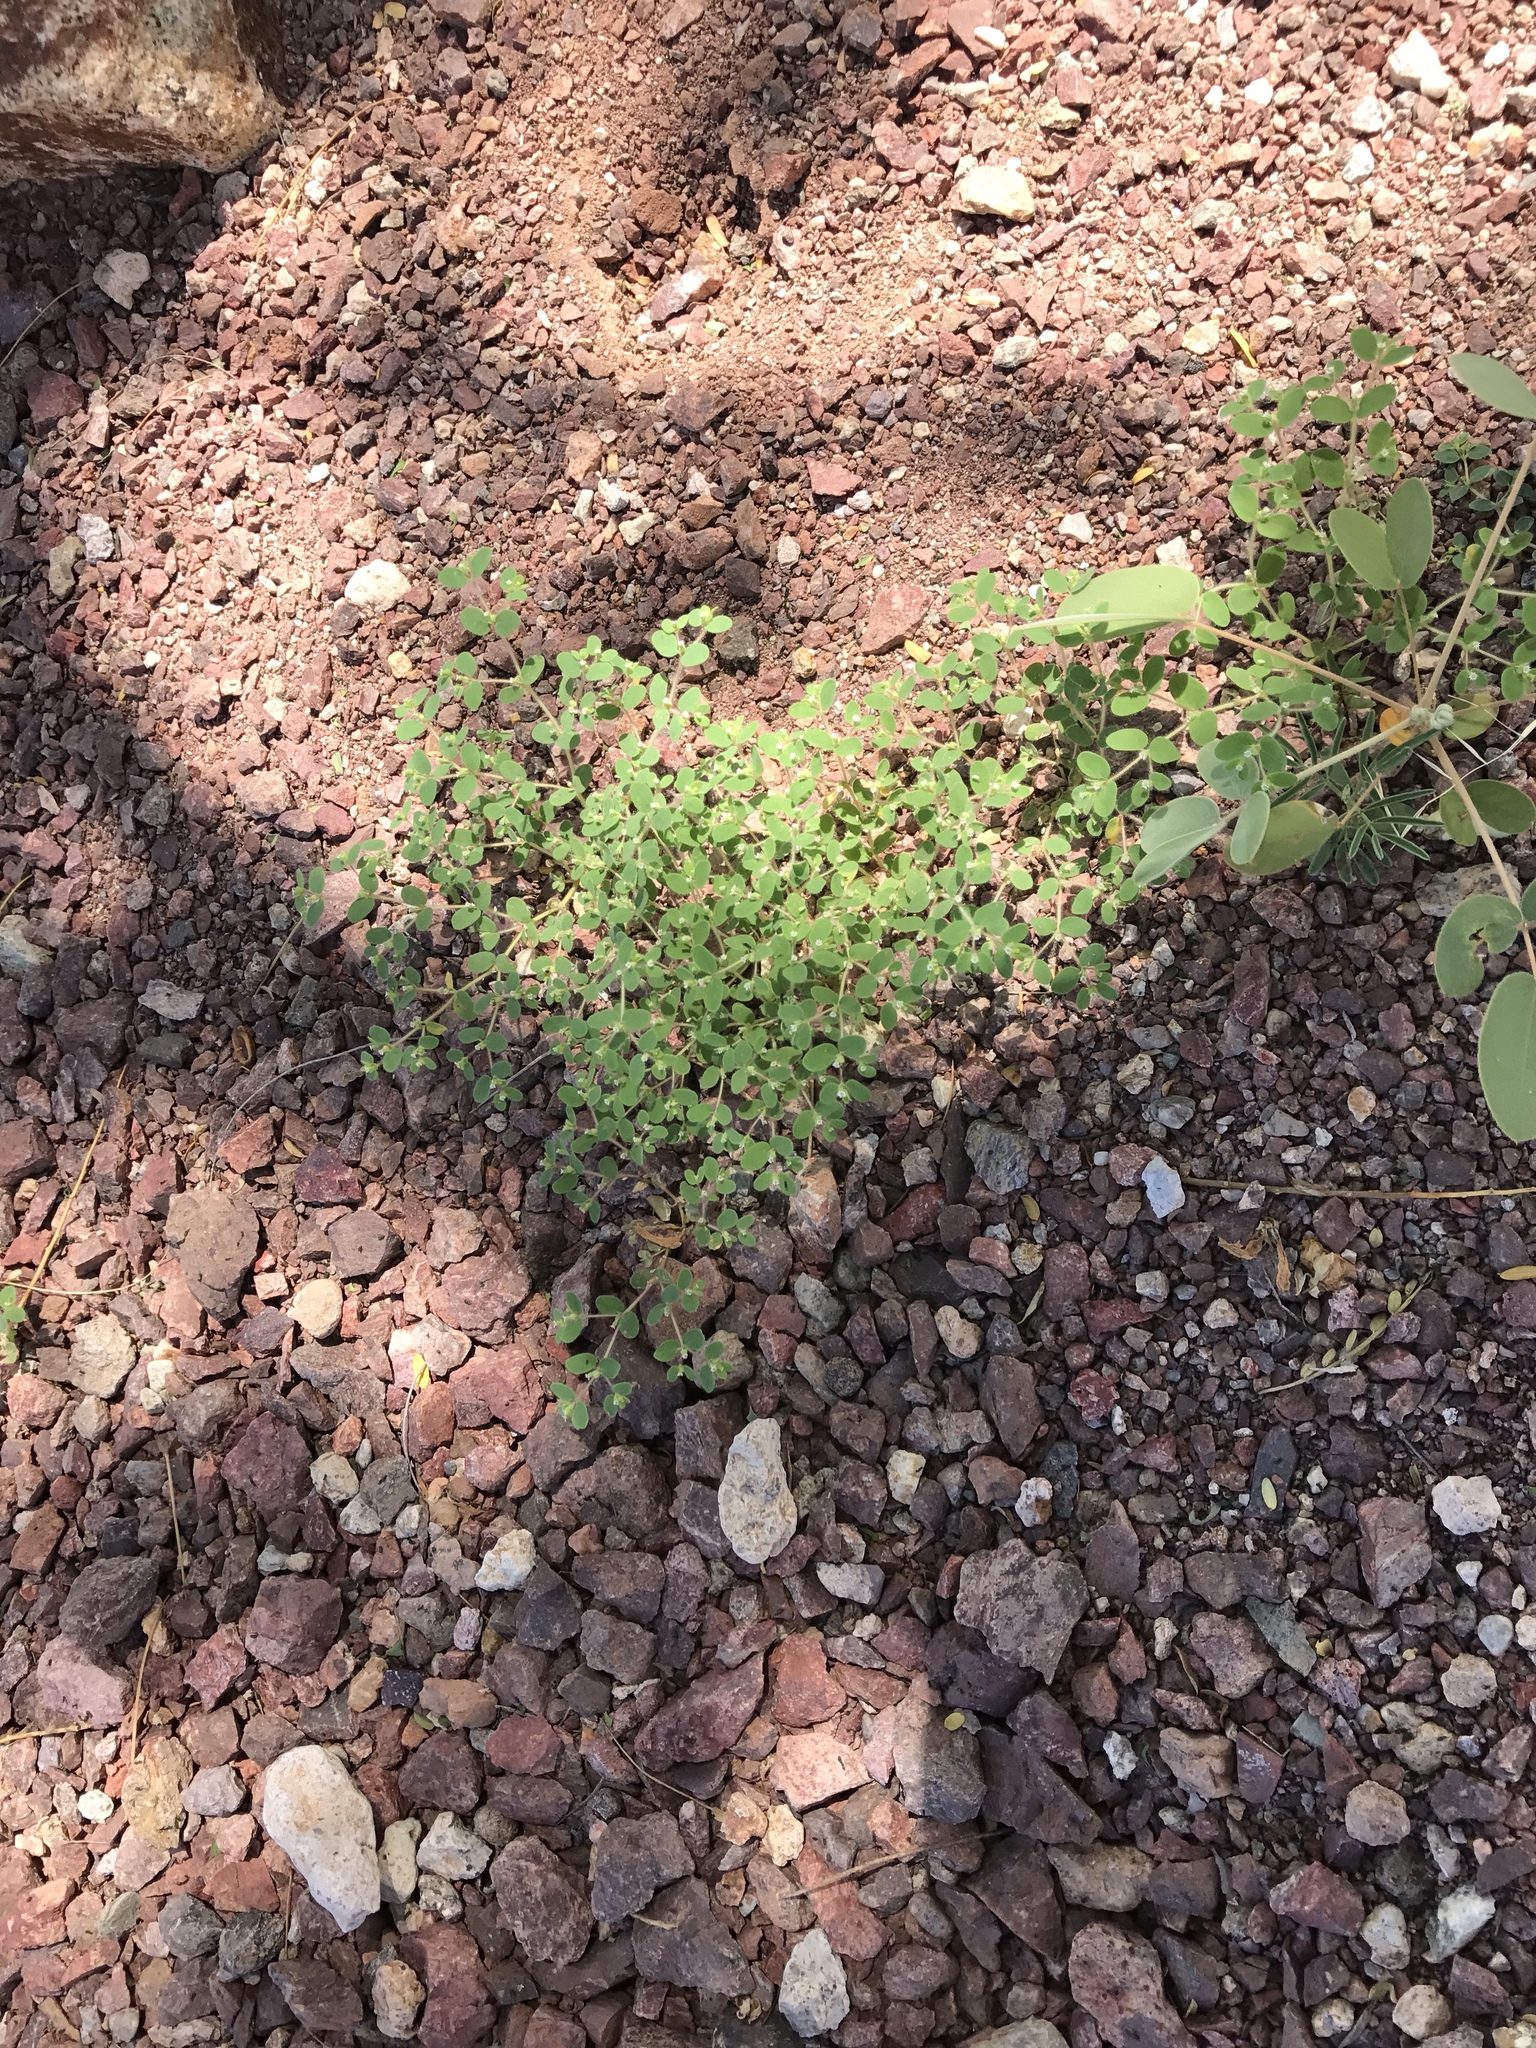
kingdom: Plantae
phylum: Tracheophyta
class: Magnoliopsida
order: Malpighiales
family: Euphorbiaceae
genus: Euphorbia
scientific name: Euphorbia setiloba
